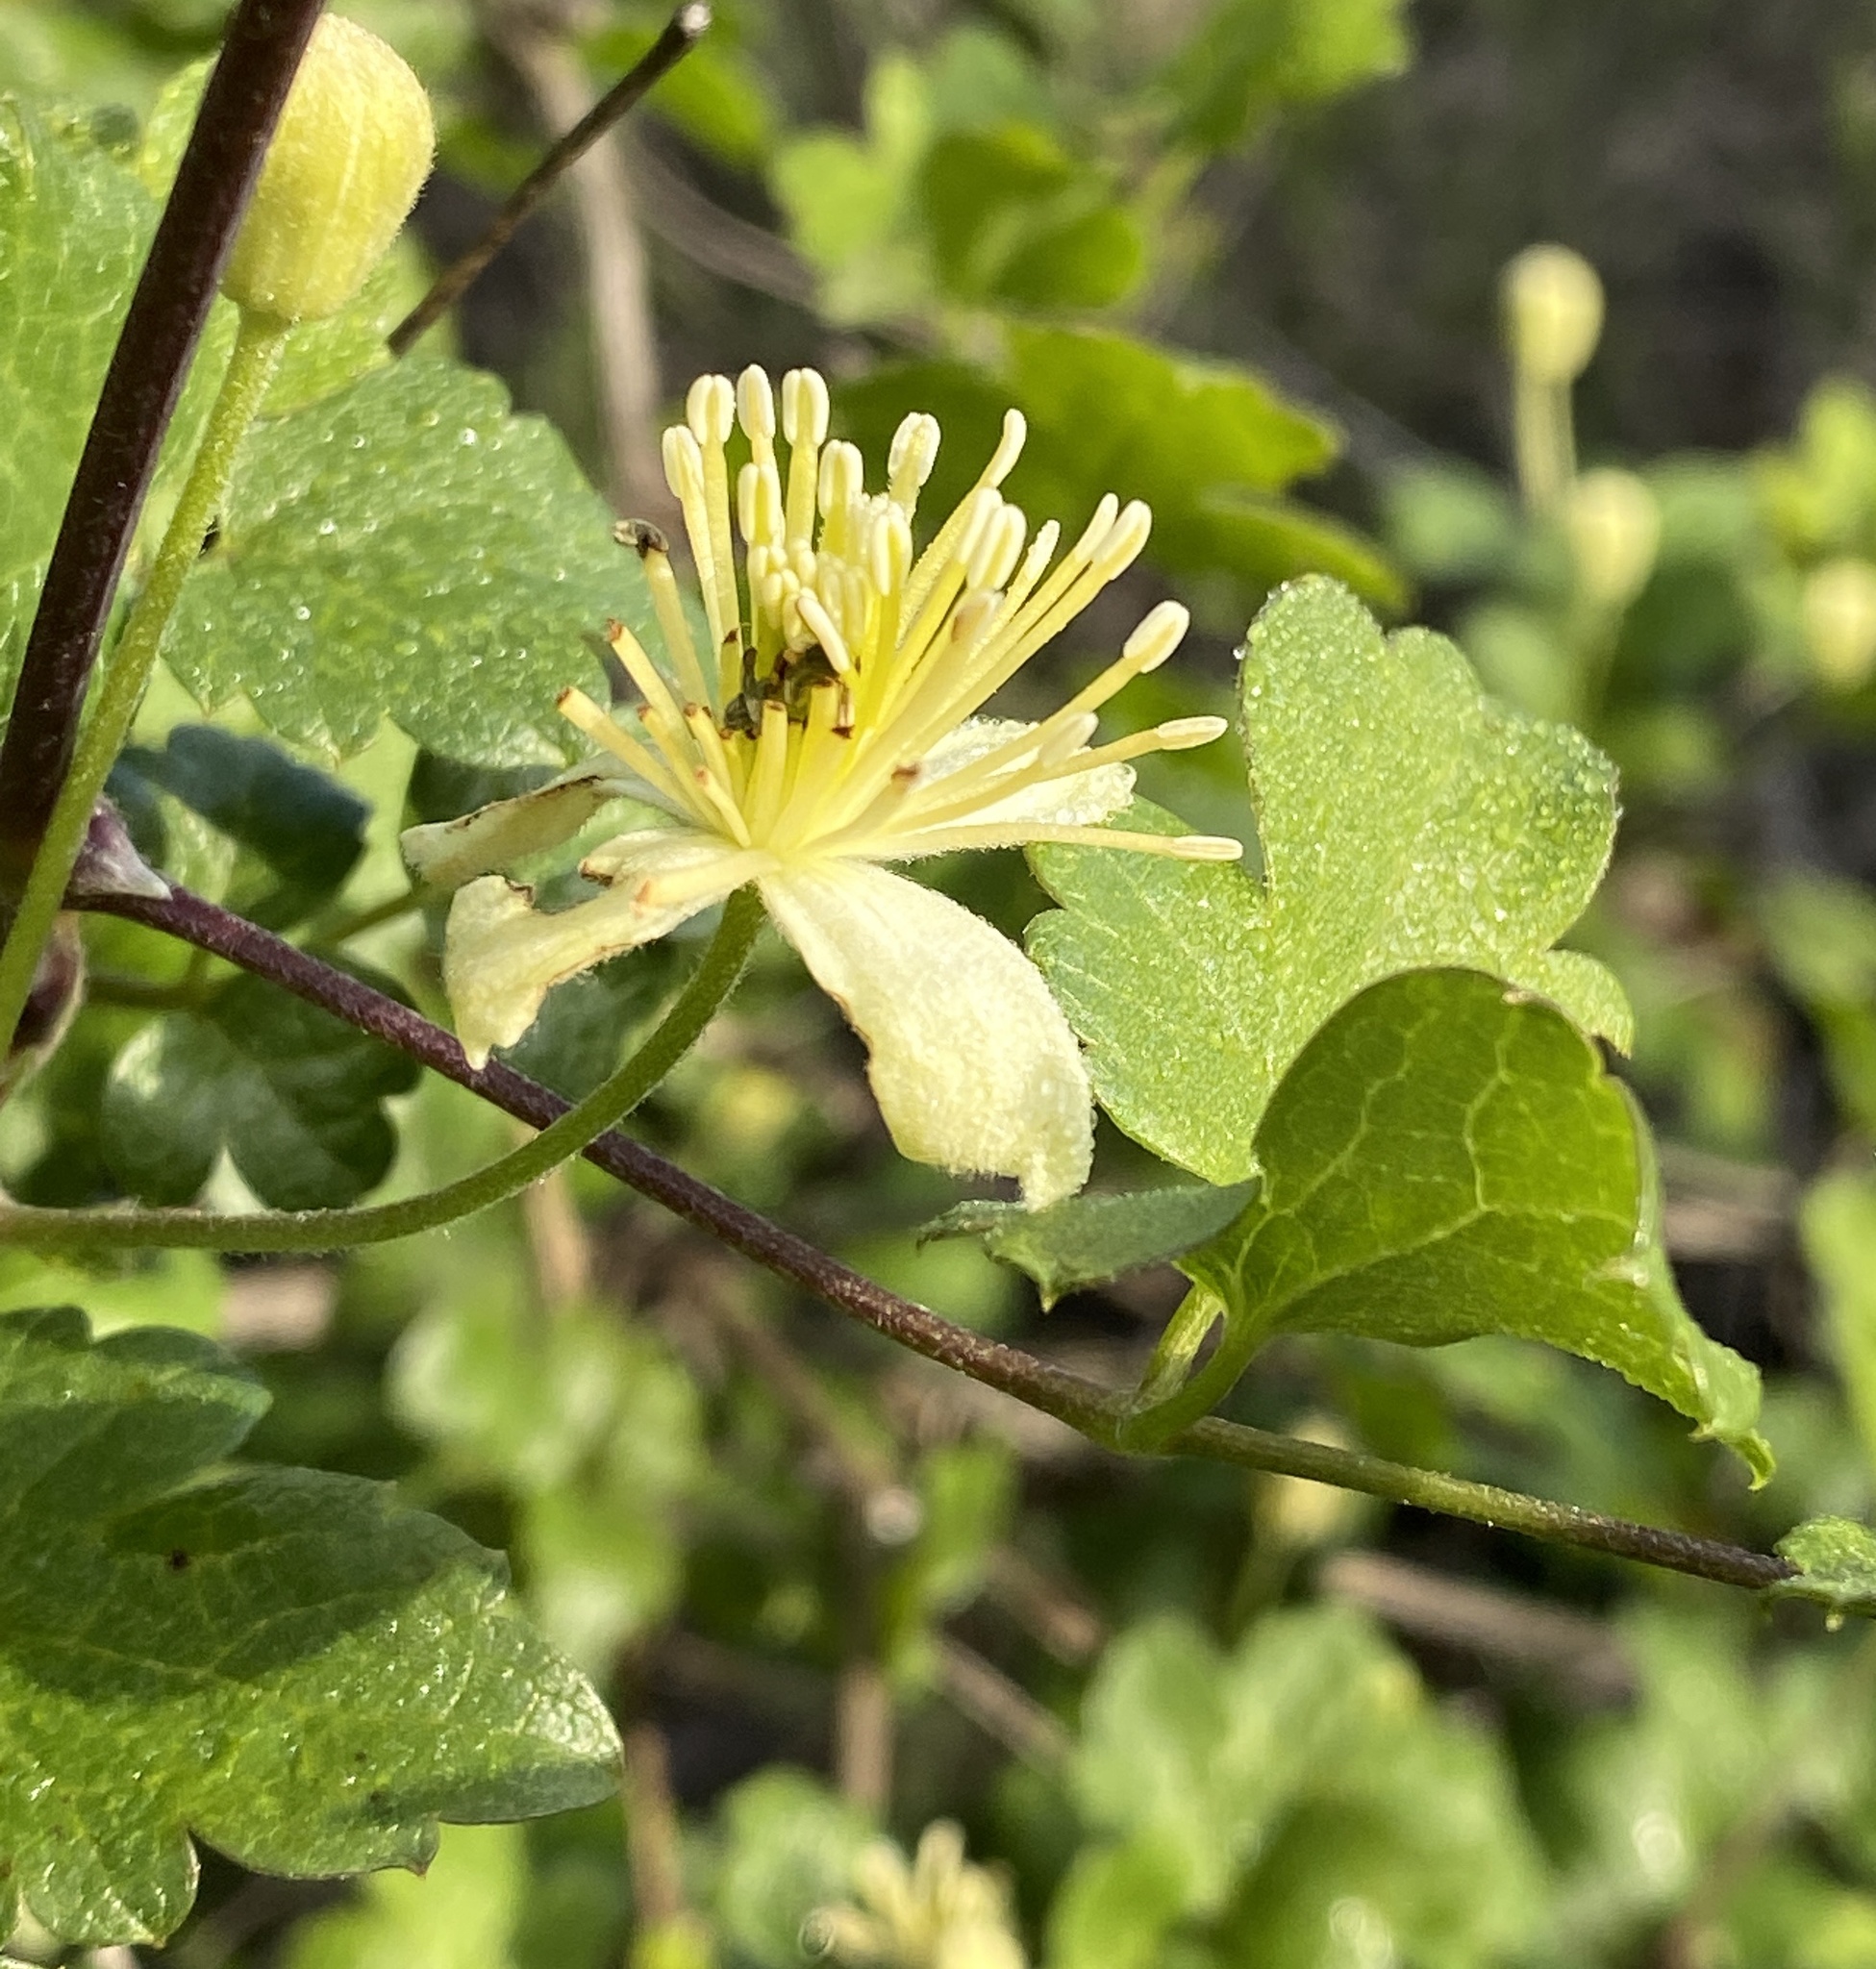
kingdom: Plantae
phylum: Tracheophyta
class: Magnoliopsida
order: Ranunculales
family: Ranunculaceae
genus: Clematis
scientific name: Clematis pauciflora
